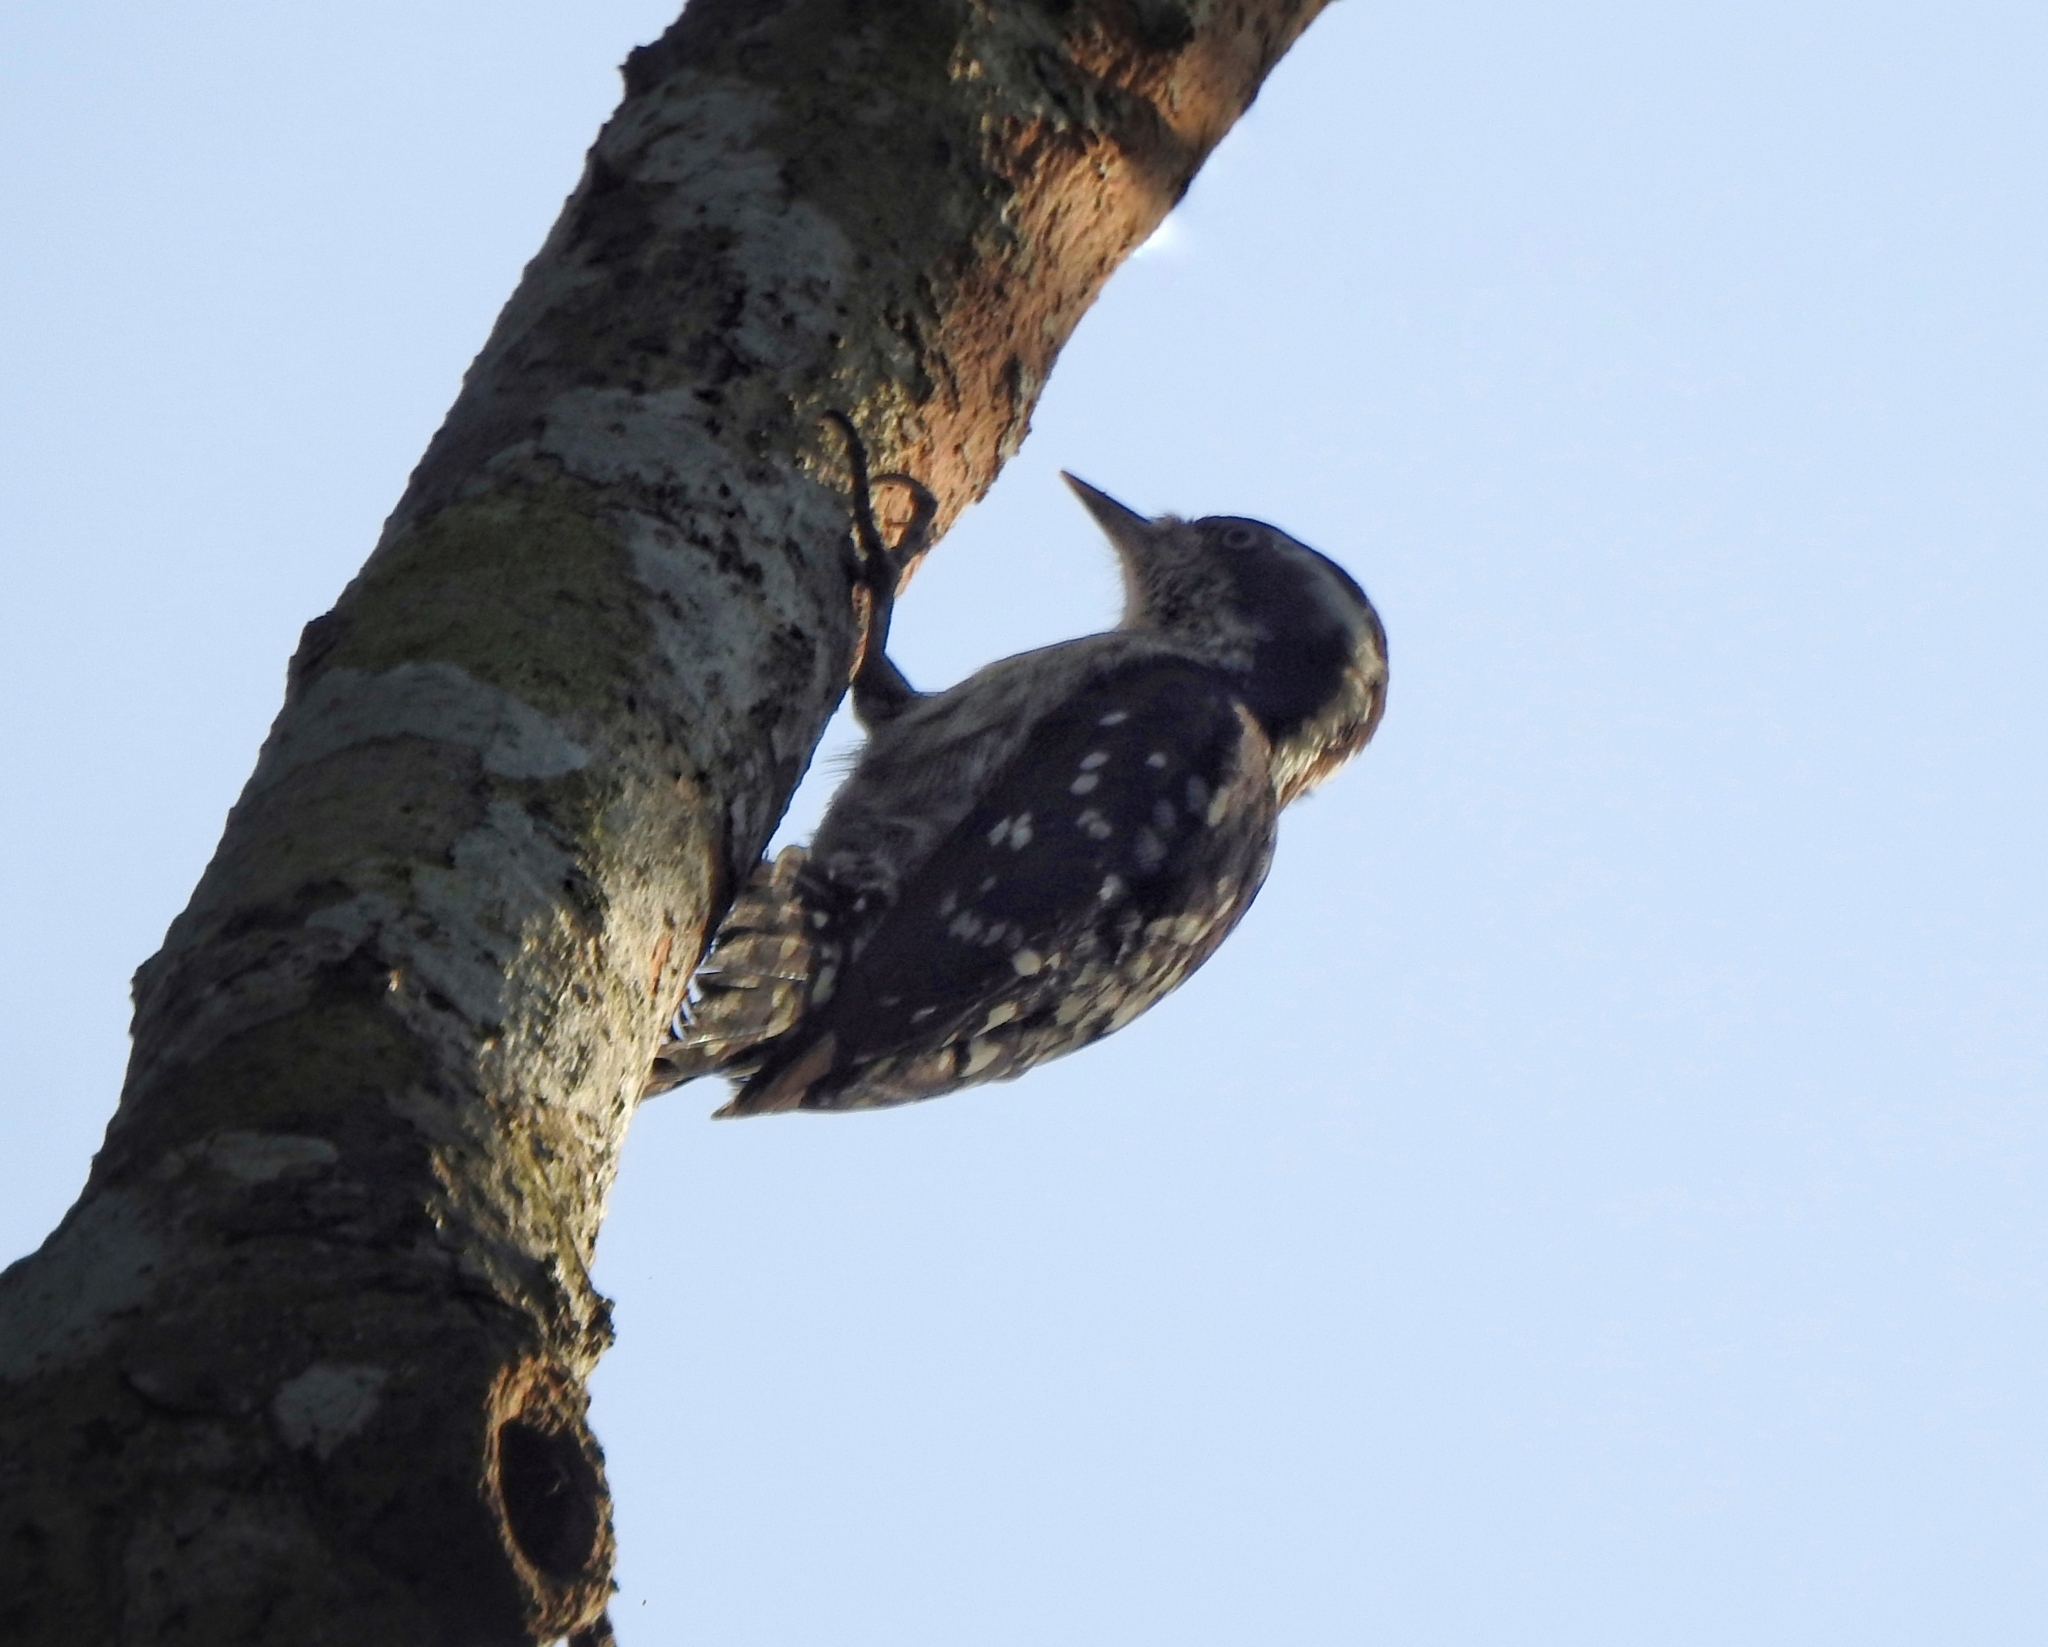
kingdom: Animalia
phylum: Chordata
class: Aves
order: Piciformes
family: Picidae
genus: Yungipicus
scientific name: Yungipicus nanus
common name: Brown-capped pygmy woodpecker
